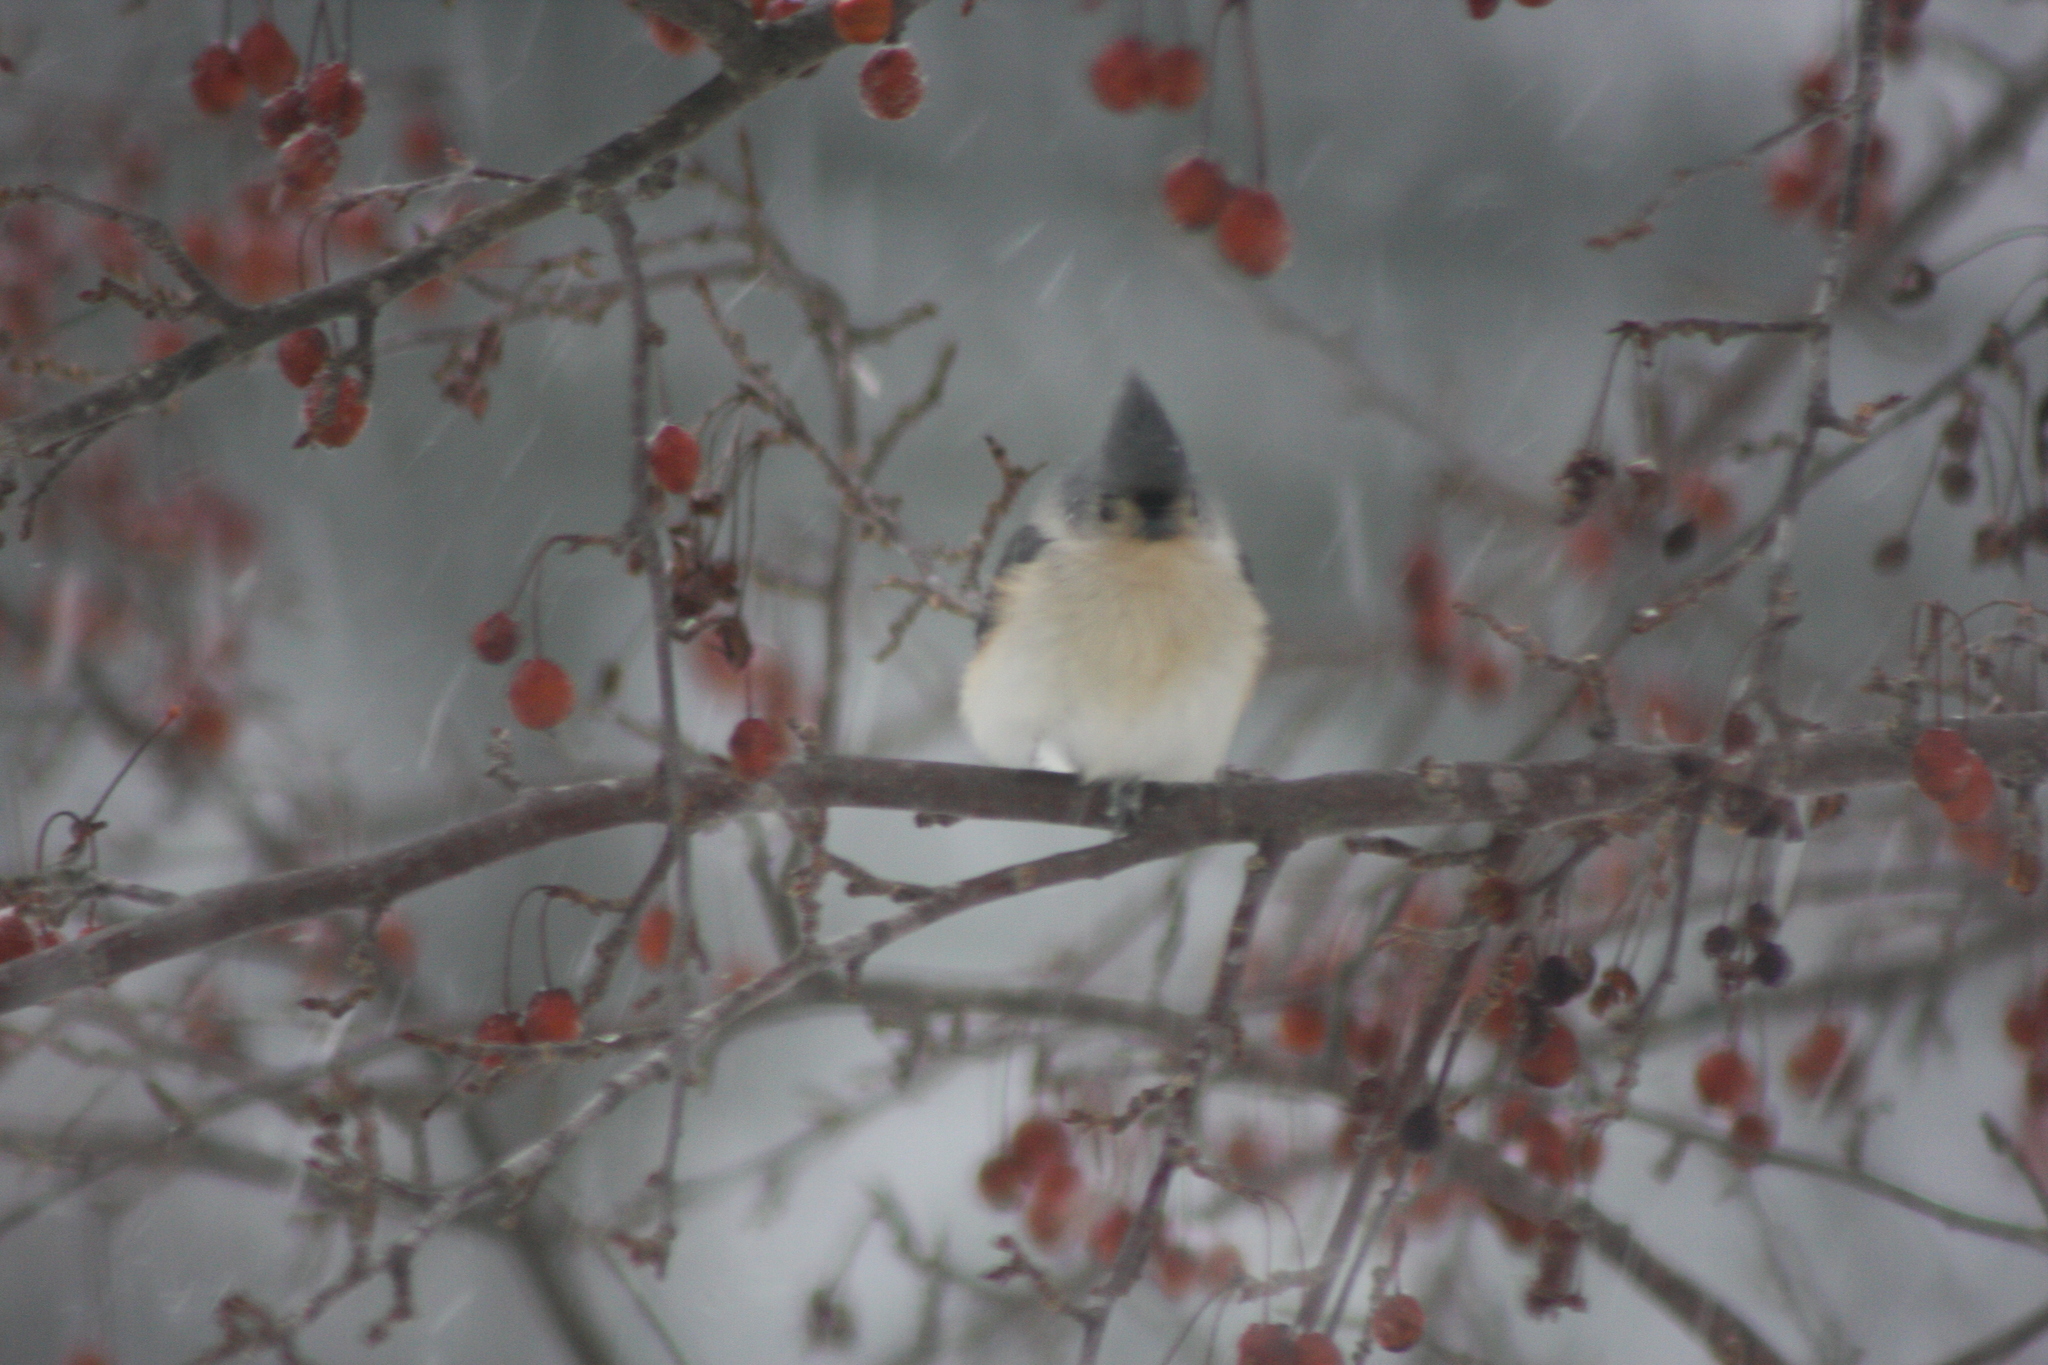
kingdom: Animalia
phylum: Chordata
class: Aves
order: Passeriformes
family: Paridae
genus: Baeolophus
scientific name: Baeolophus bicolor
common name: Tufted titmouse
